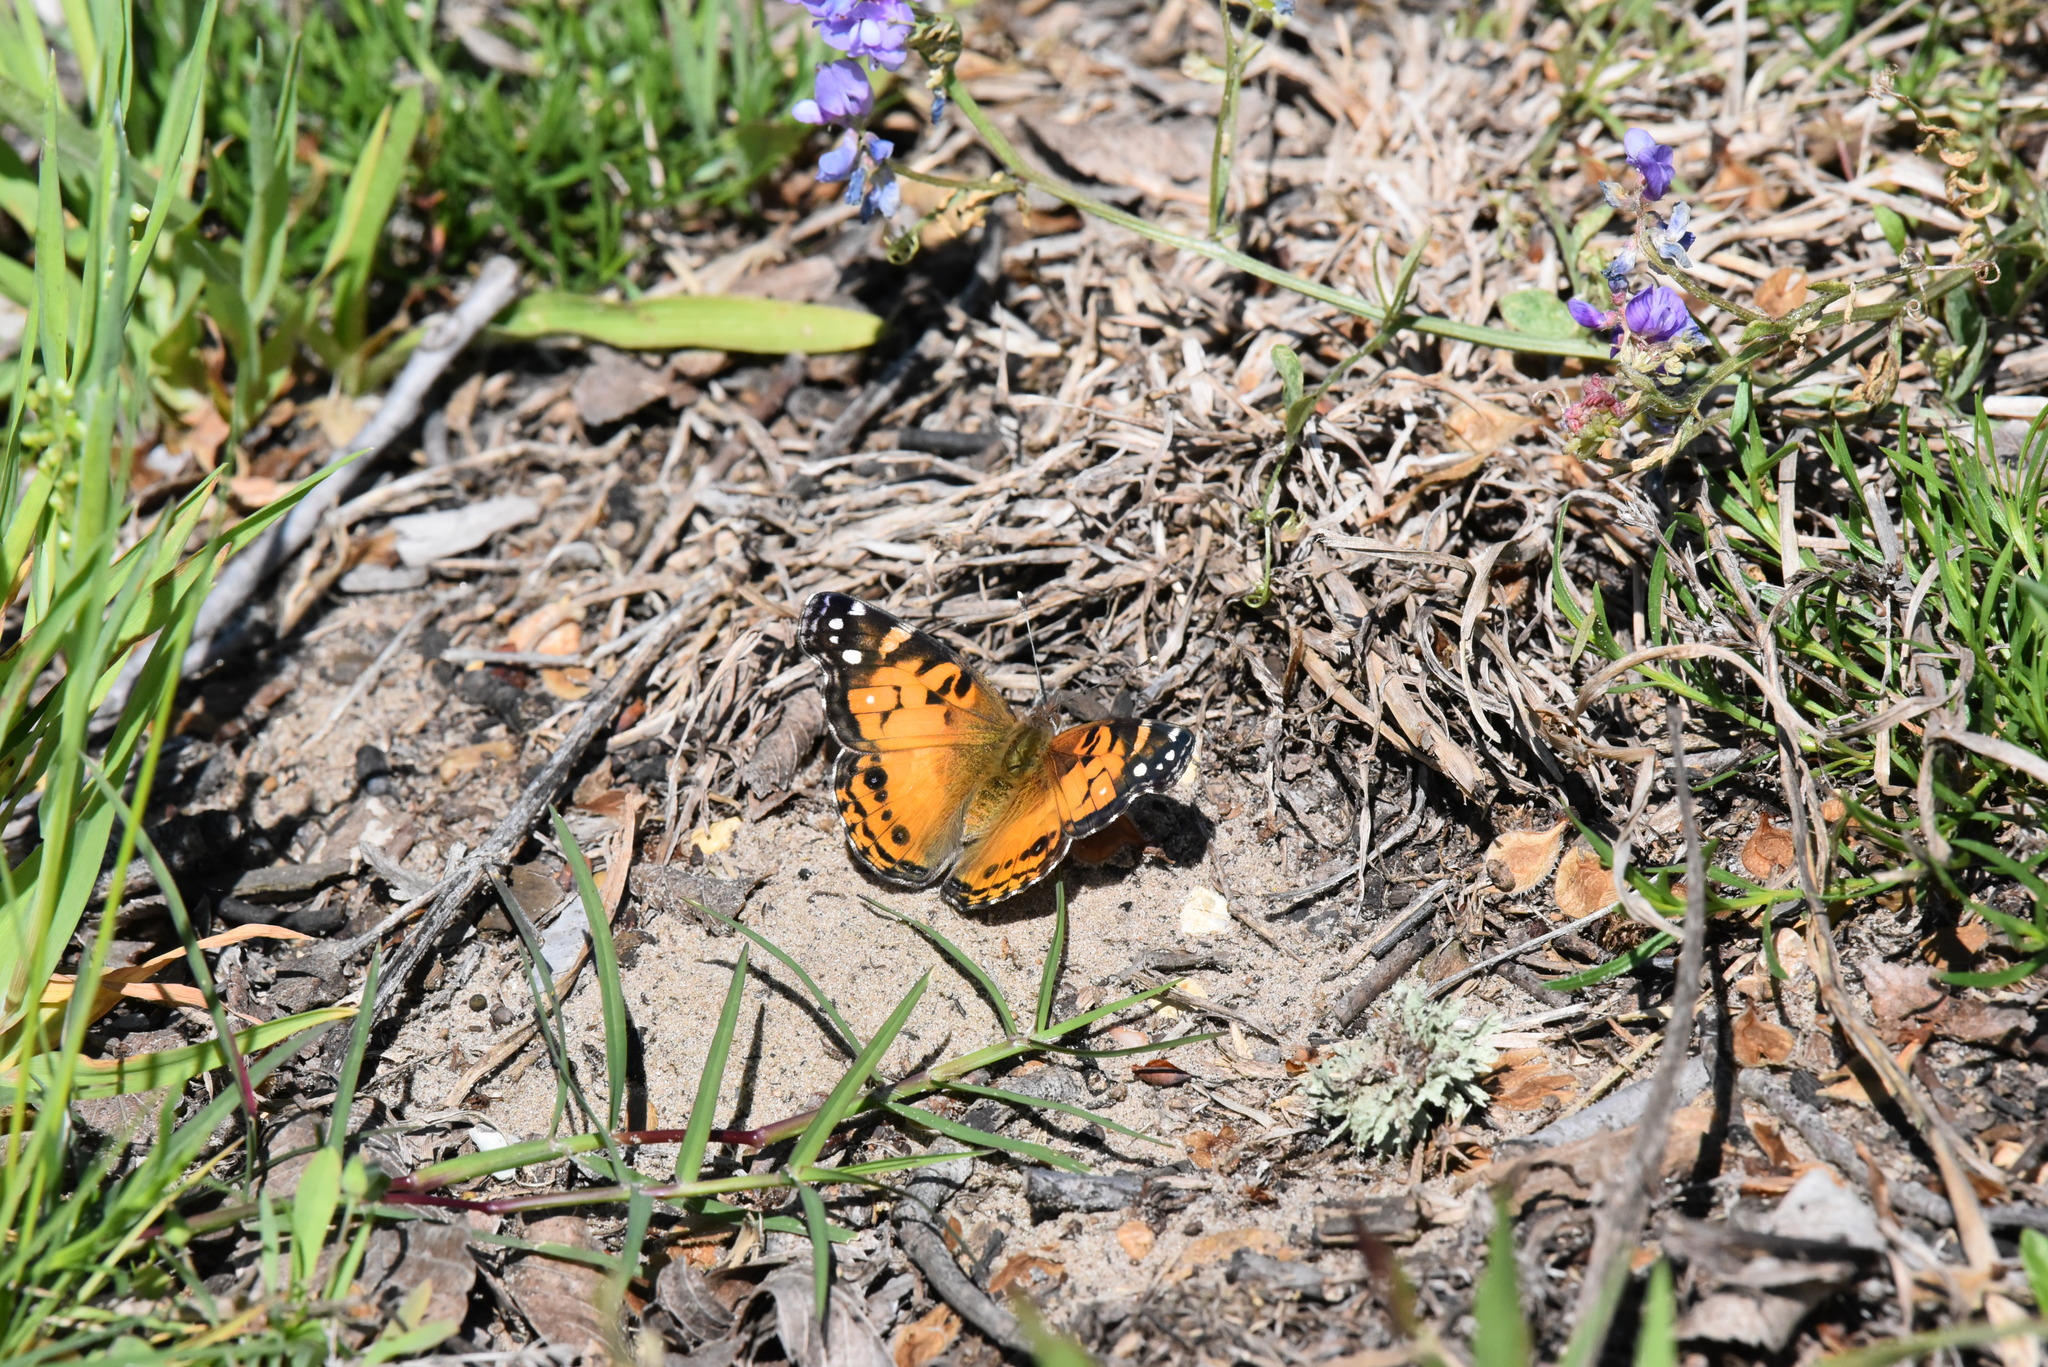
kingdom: Animalia
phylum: Arthropoda
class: Insecta
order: Lepidoptera
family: Nymphalidae
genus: Vanessa
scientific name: Vanessa virginiensis
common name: American lady
